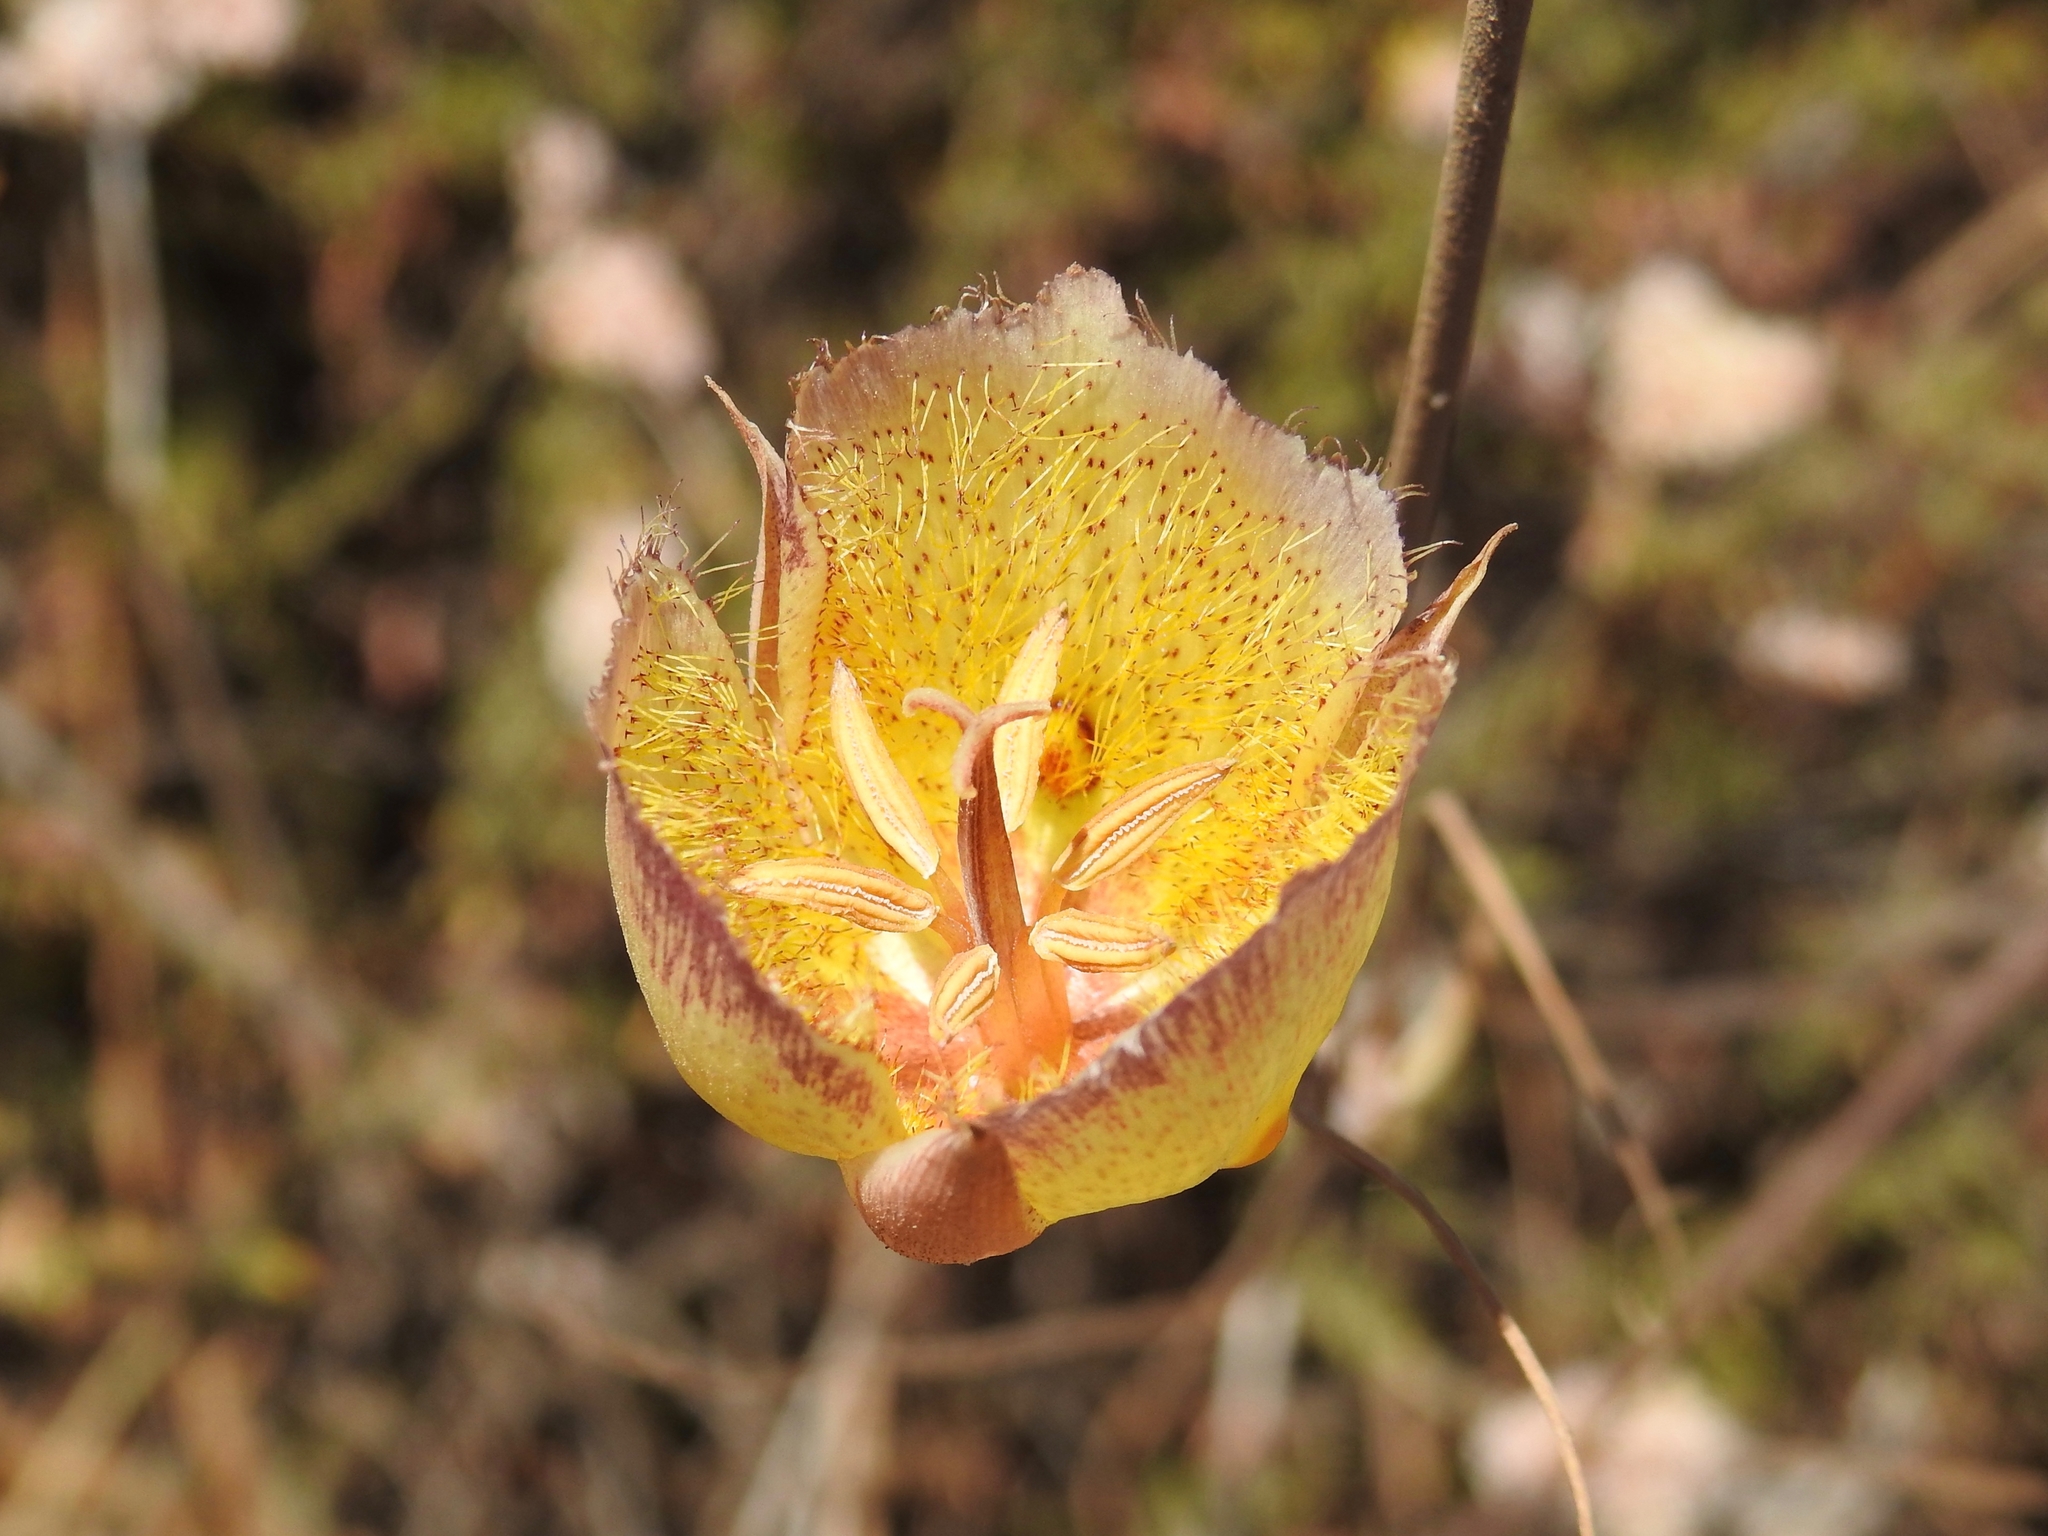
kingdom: Plantae
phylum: Tracheophyta
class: Liliopsida
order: Liliales
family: Liliaceae
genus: Calochortus
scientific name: Calochortus weedii
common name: Weed's mariposa-lily
